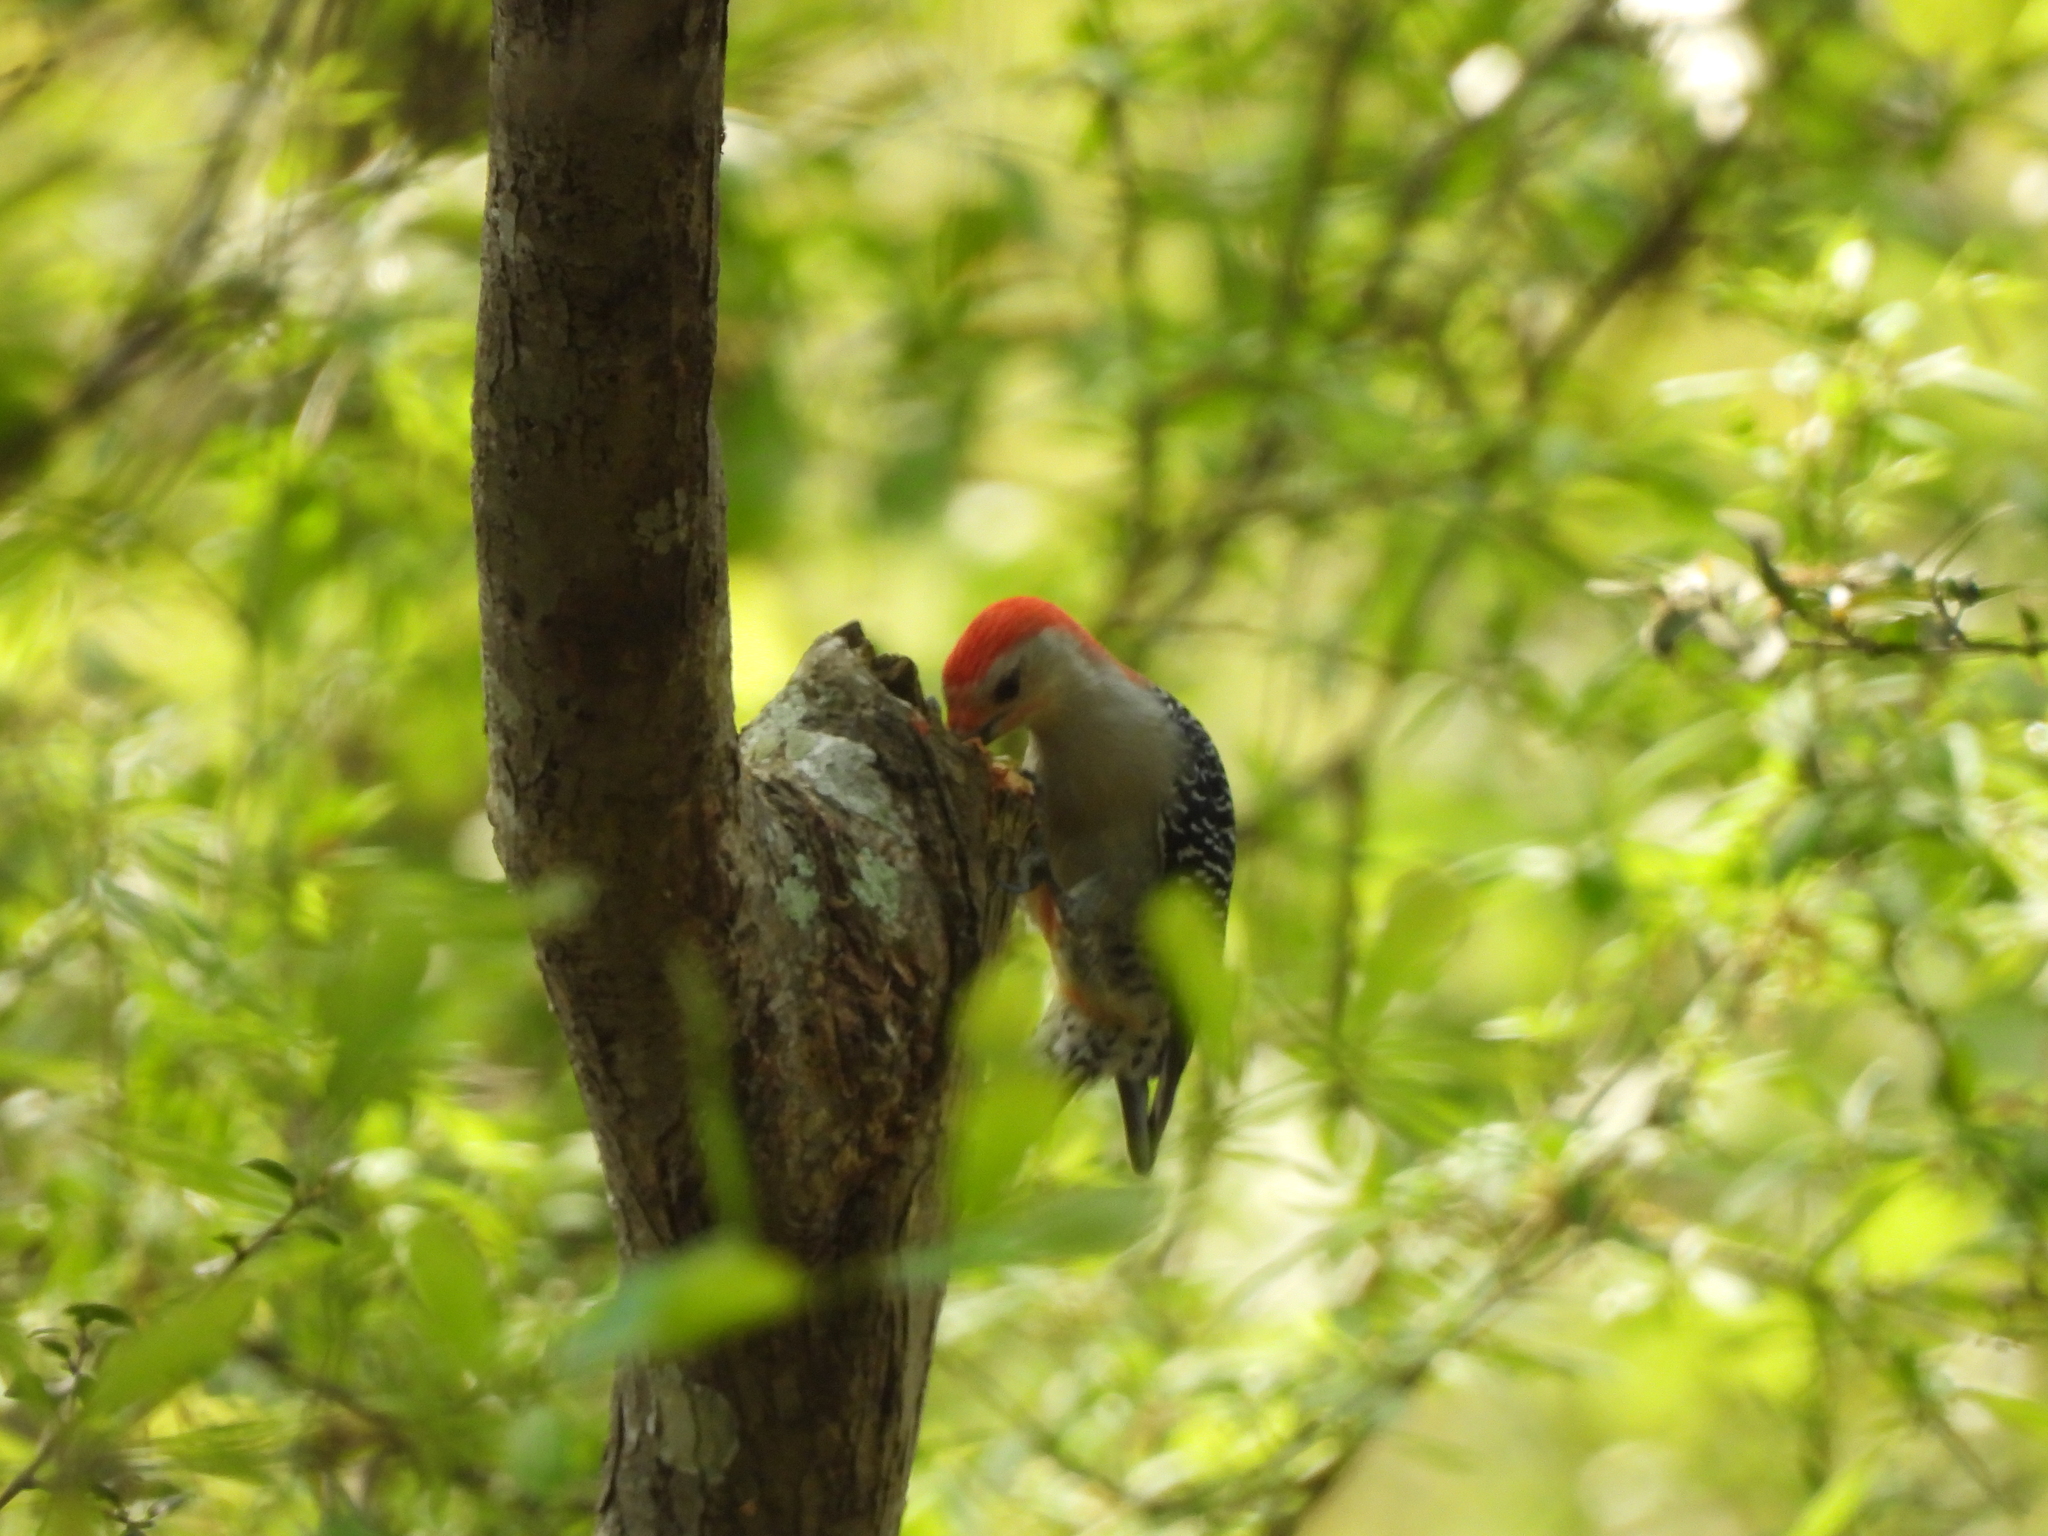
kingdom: Animalia
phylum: Chordata
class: Aves
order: Piciformes
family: Picidae
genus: Melanerpes
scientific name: Melanerpes carolinus
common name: Red-bellied woodpecker
